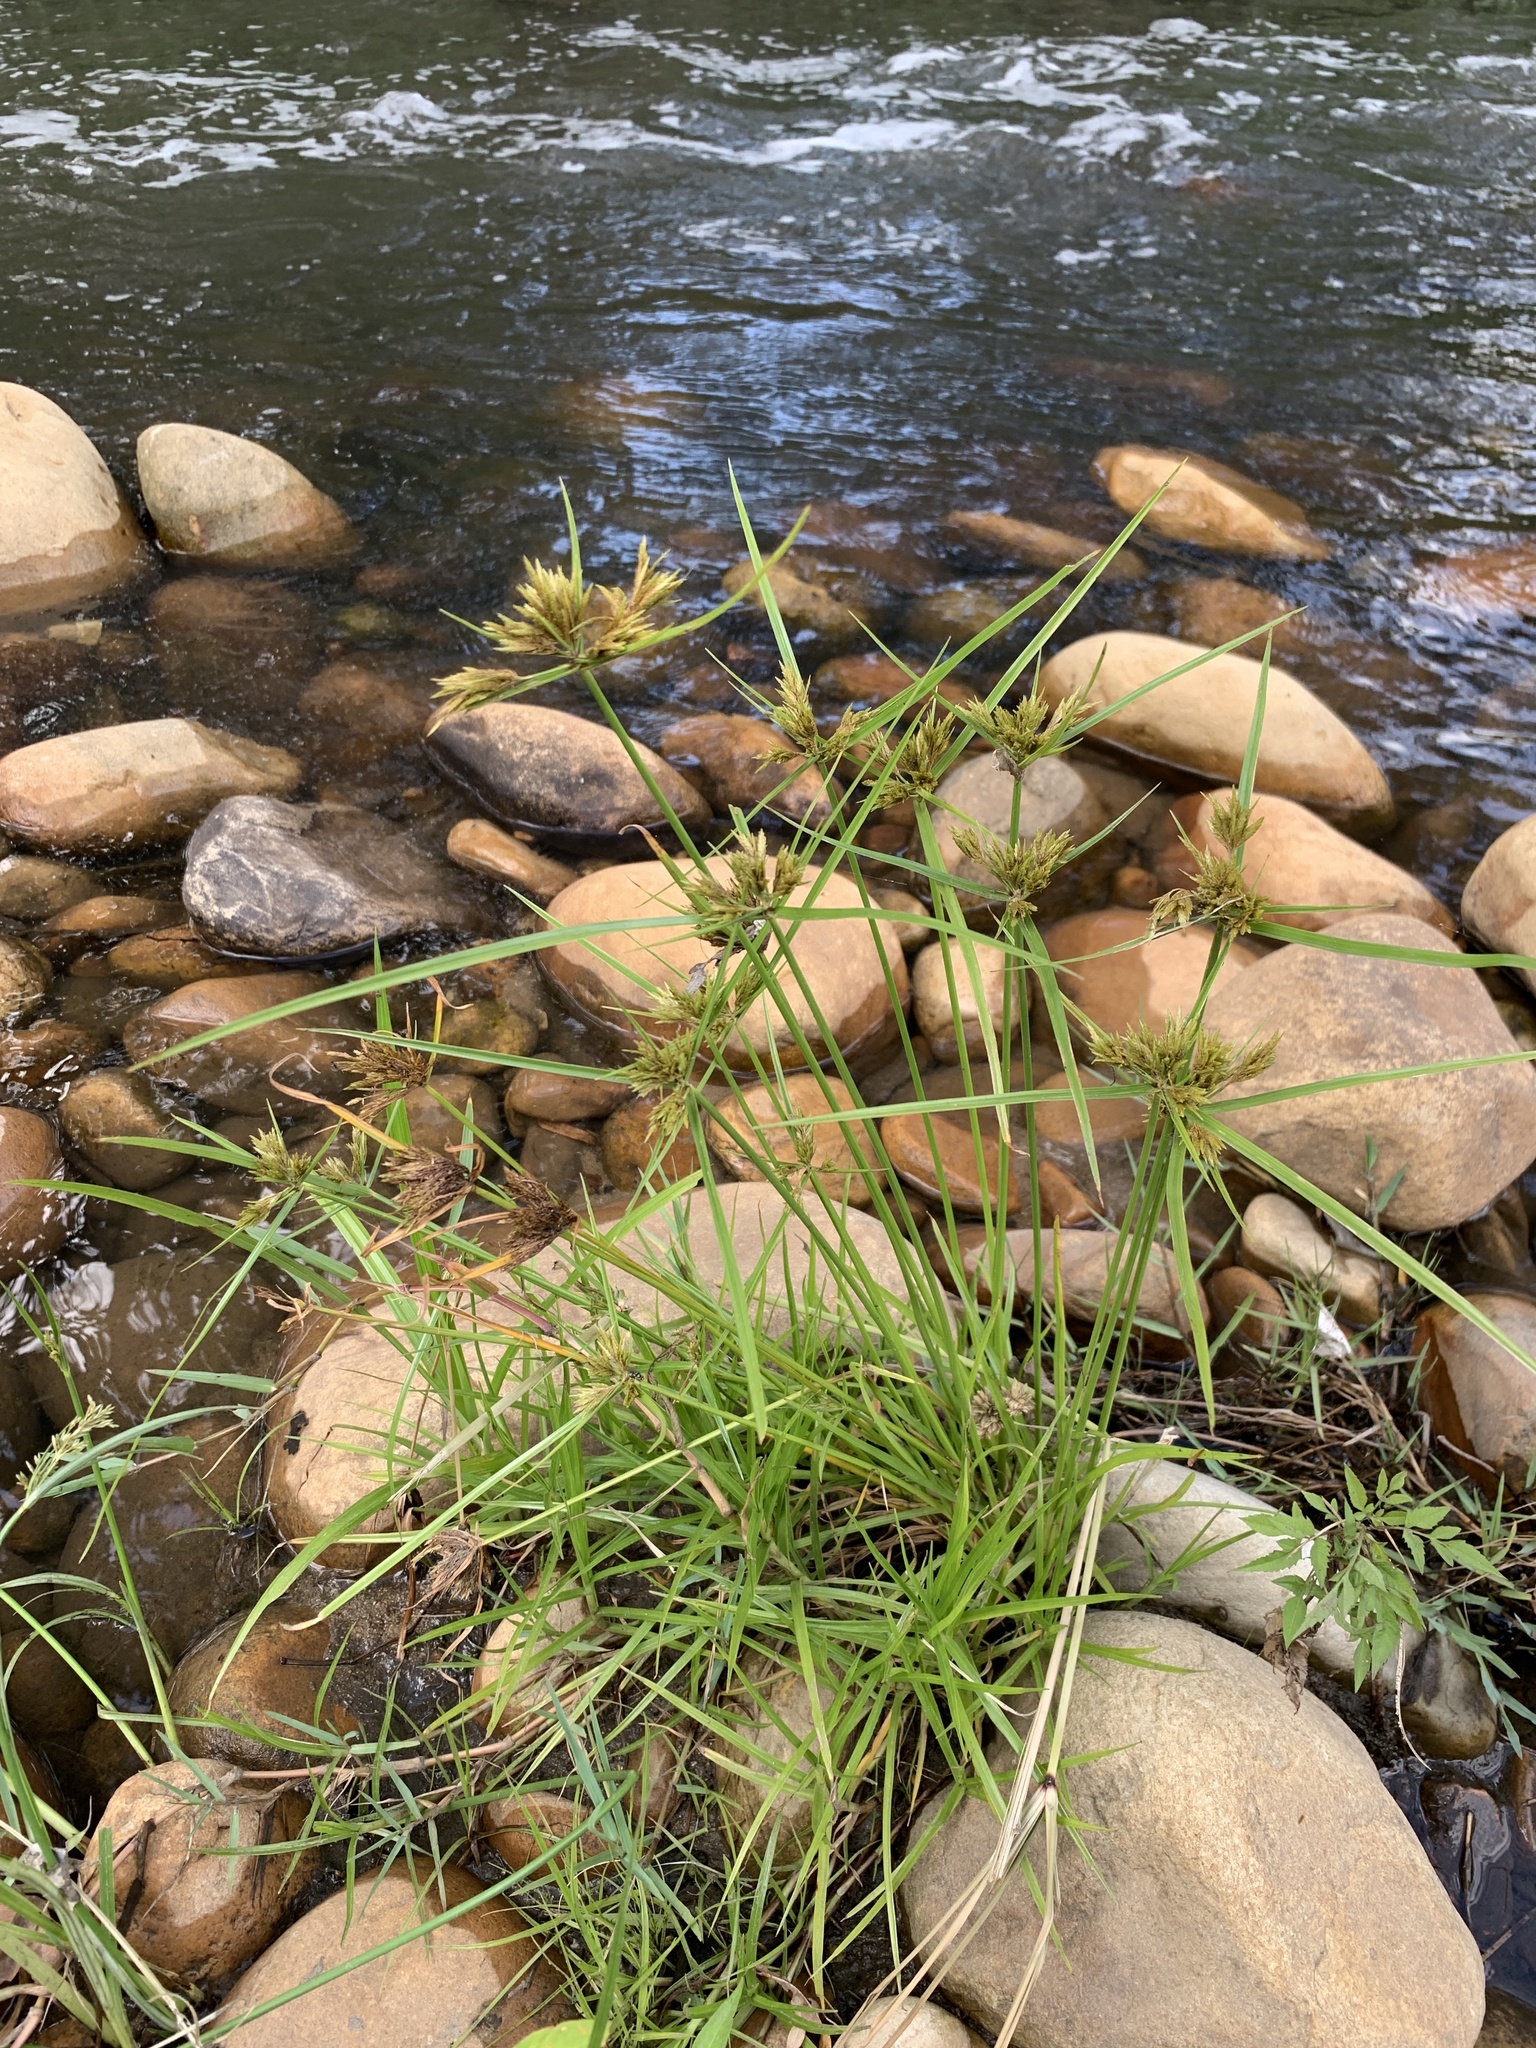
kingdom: Plantae
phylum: Tracheophyta
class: Liliopsida
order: Poales
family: Cyperaceae
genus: Cyperus
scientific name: Cyperus polystachyos
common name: Bunchy flat sedge
